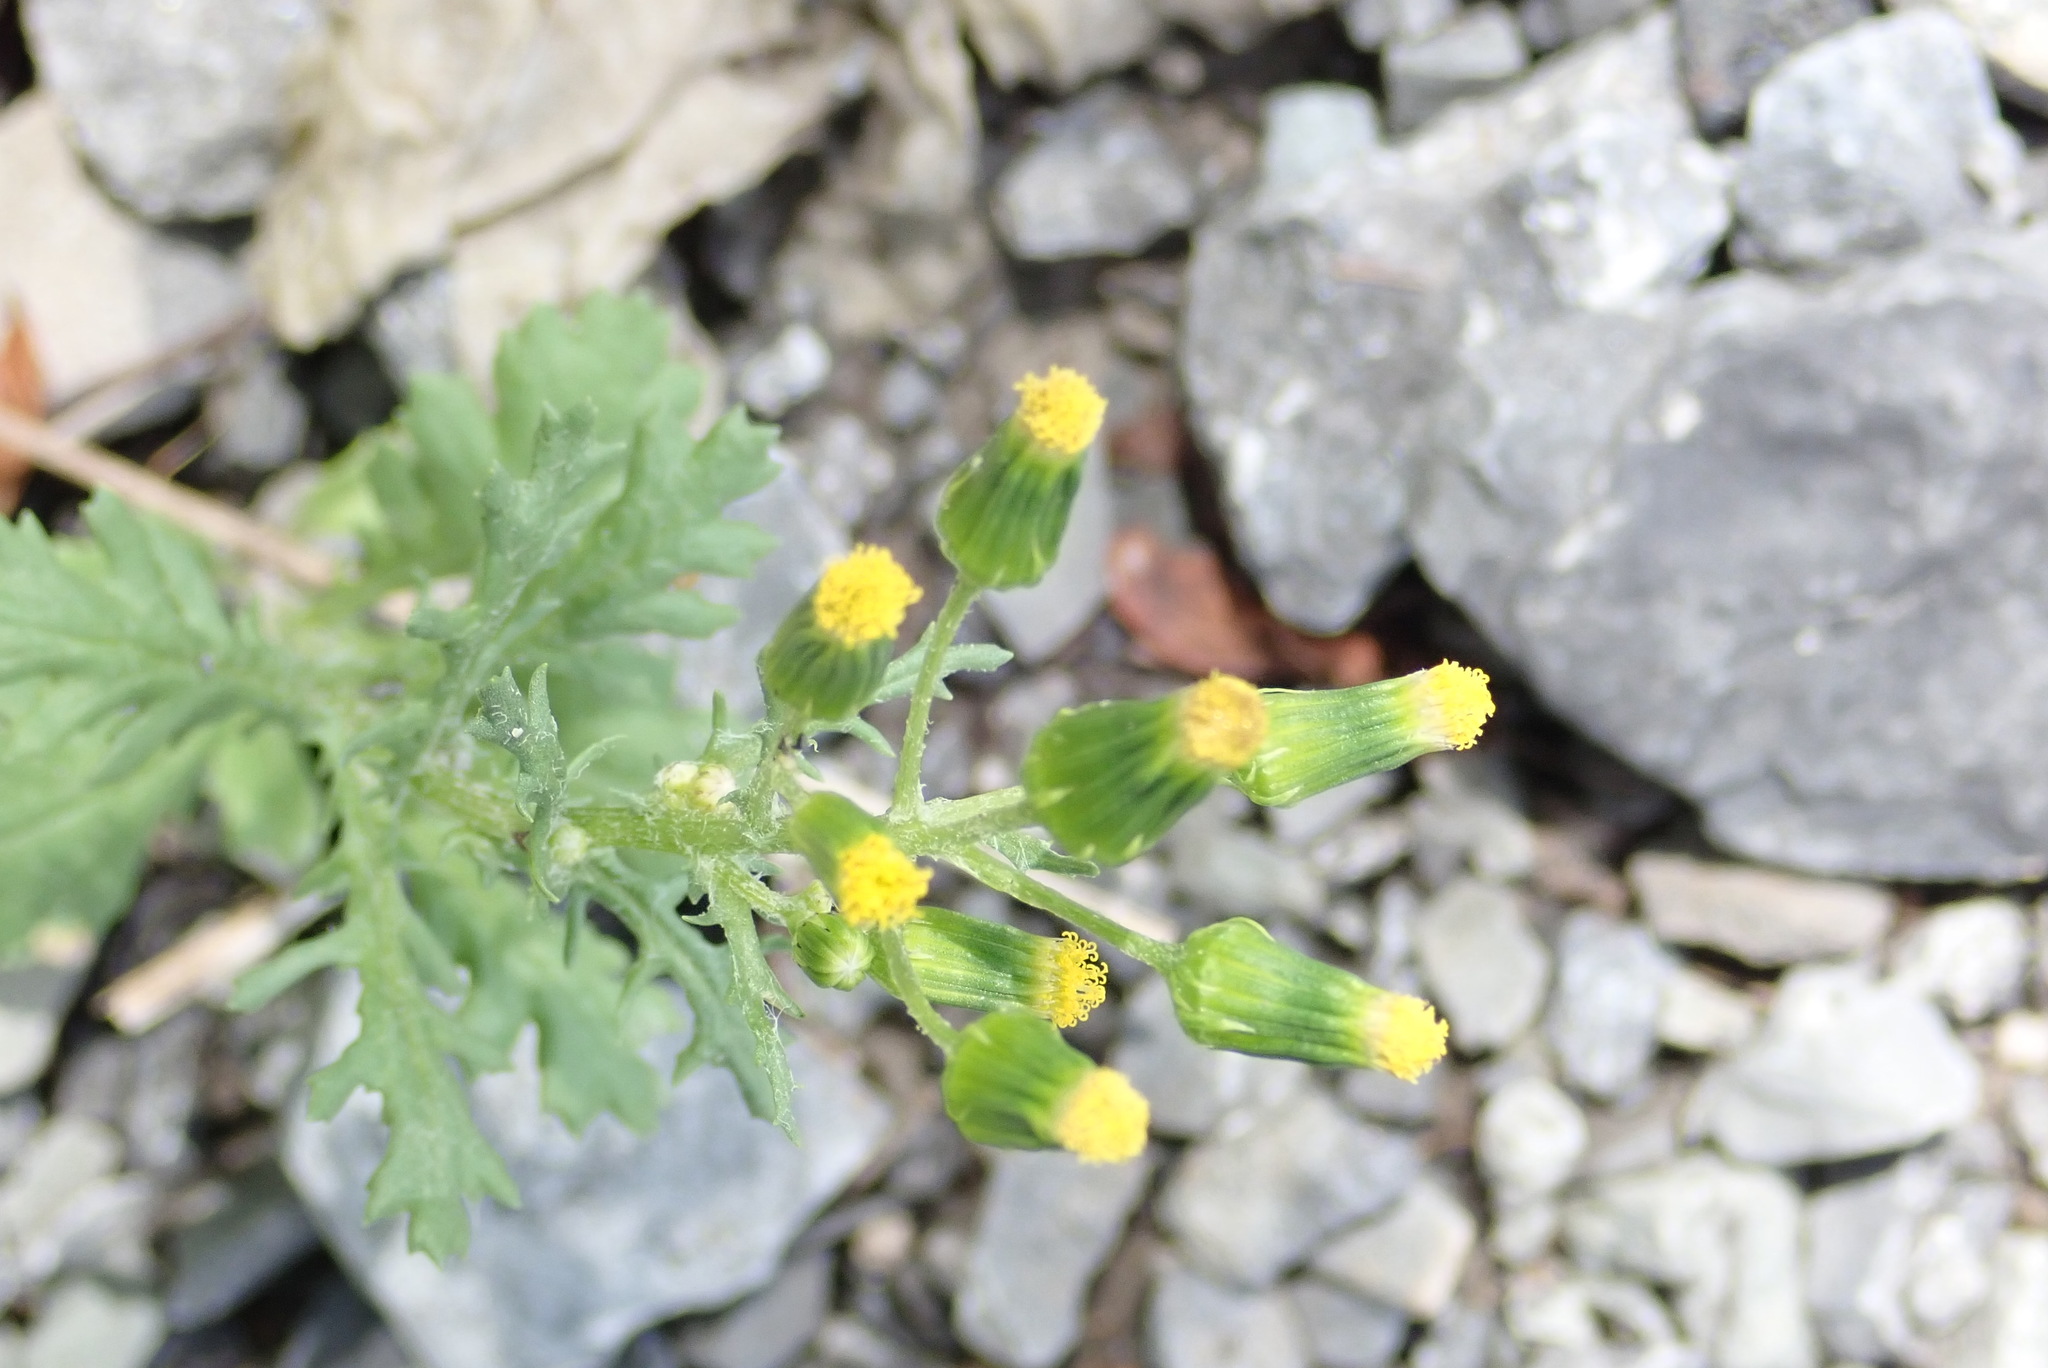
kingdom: Plantae
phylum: Tracheophyta
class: Magnoliopsida
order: Asterales
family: Asteraceae
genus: Senecio
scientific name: Senecio vulgaris
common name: Old-man-in-the-spring
